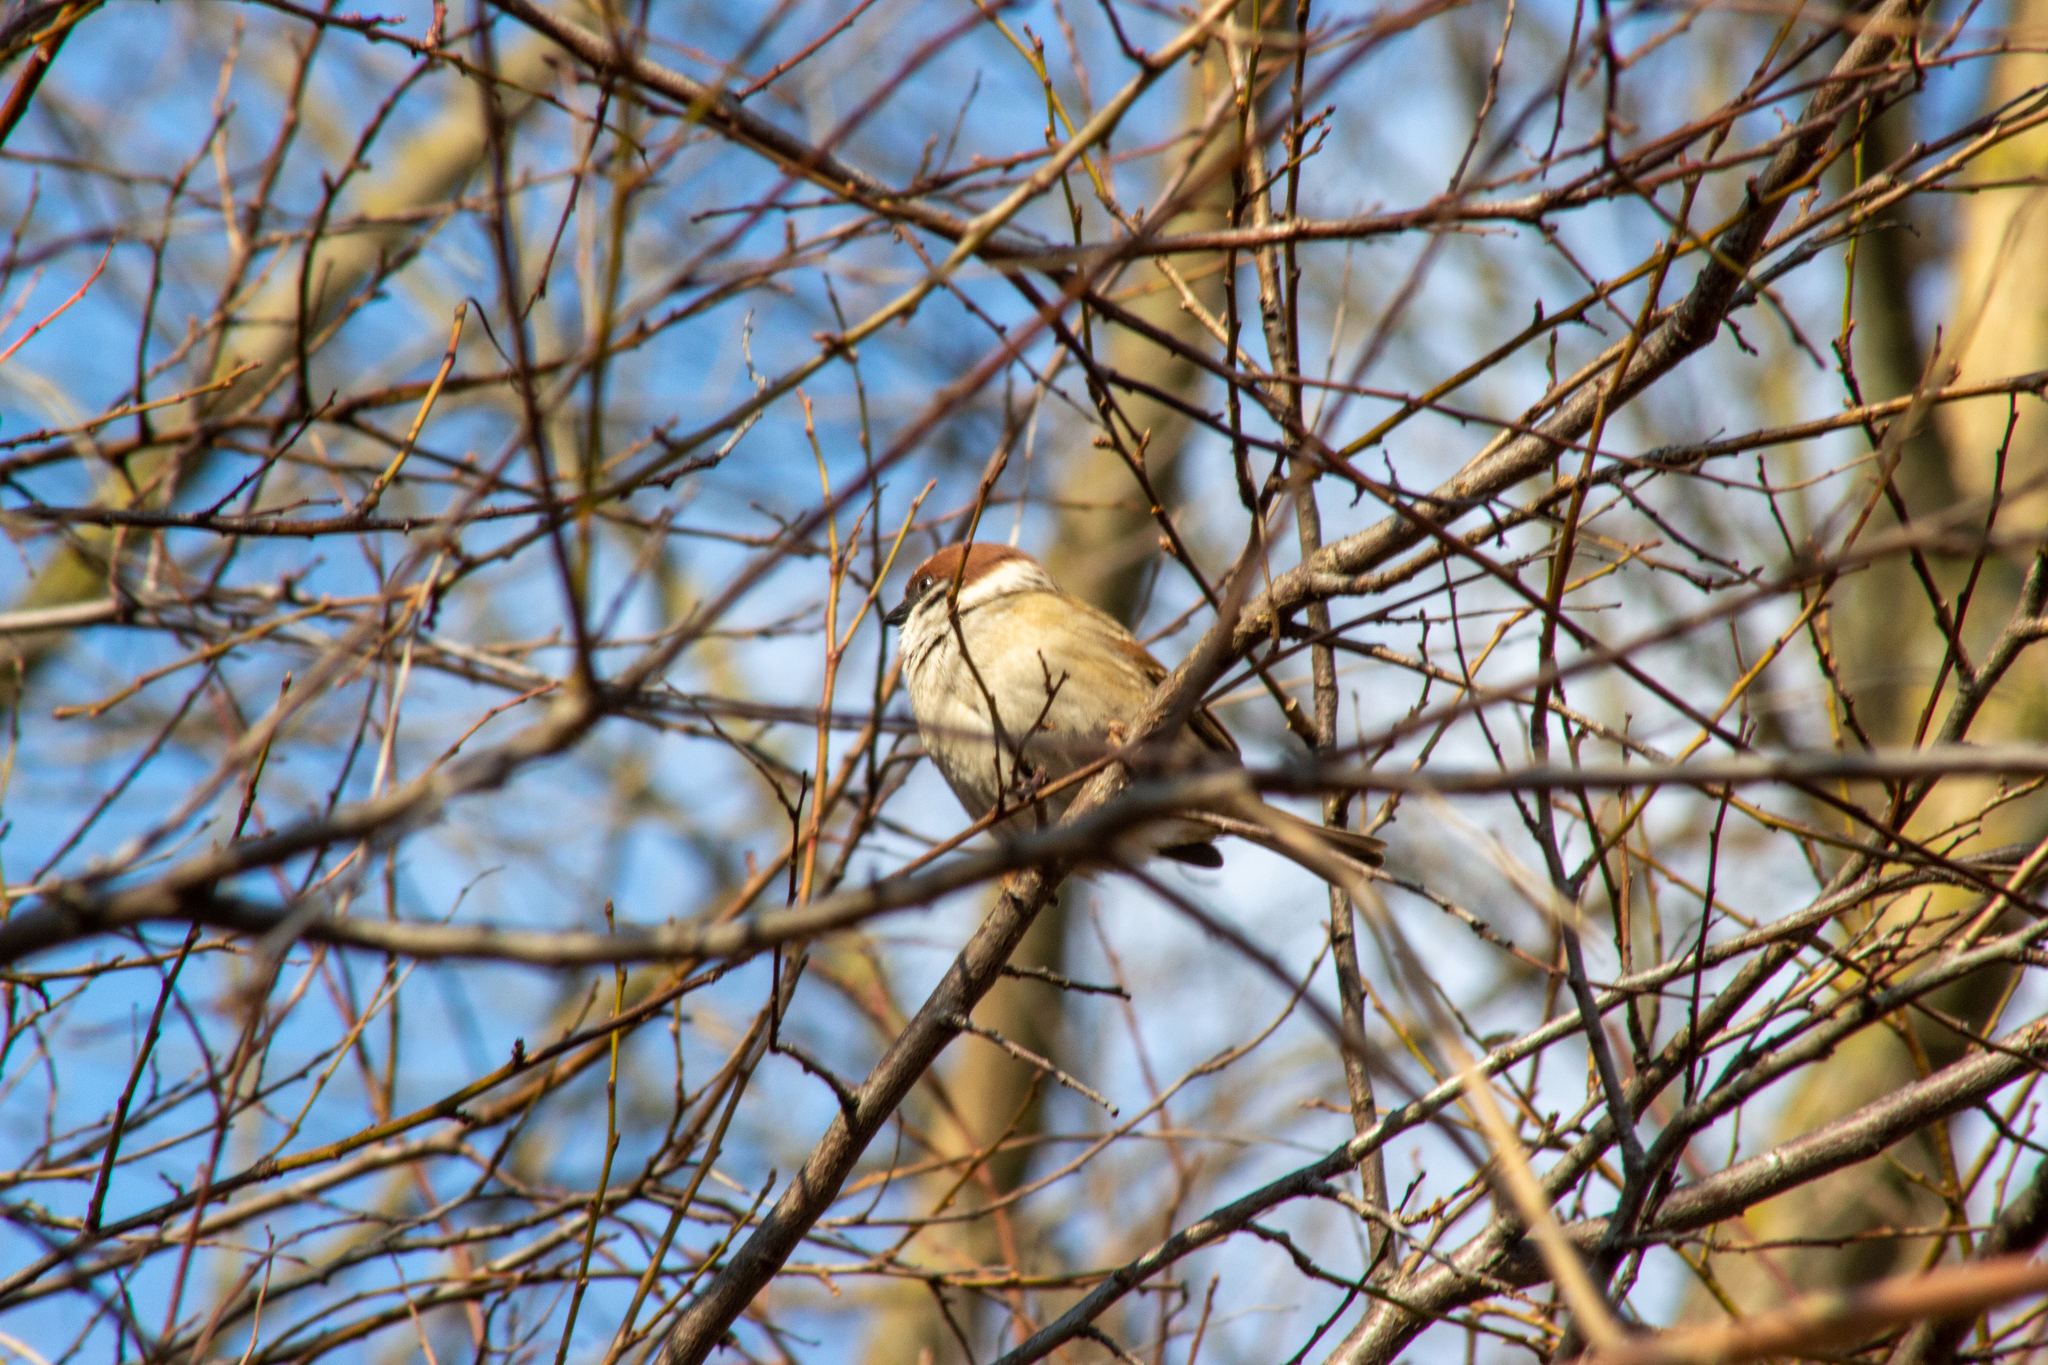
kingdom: Animalia
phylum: Chordata
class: Aves
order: Passeriformes
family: Passeridae
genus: Passer
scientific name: Passer montanus
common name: Eurasian tree sparrow
